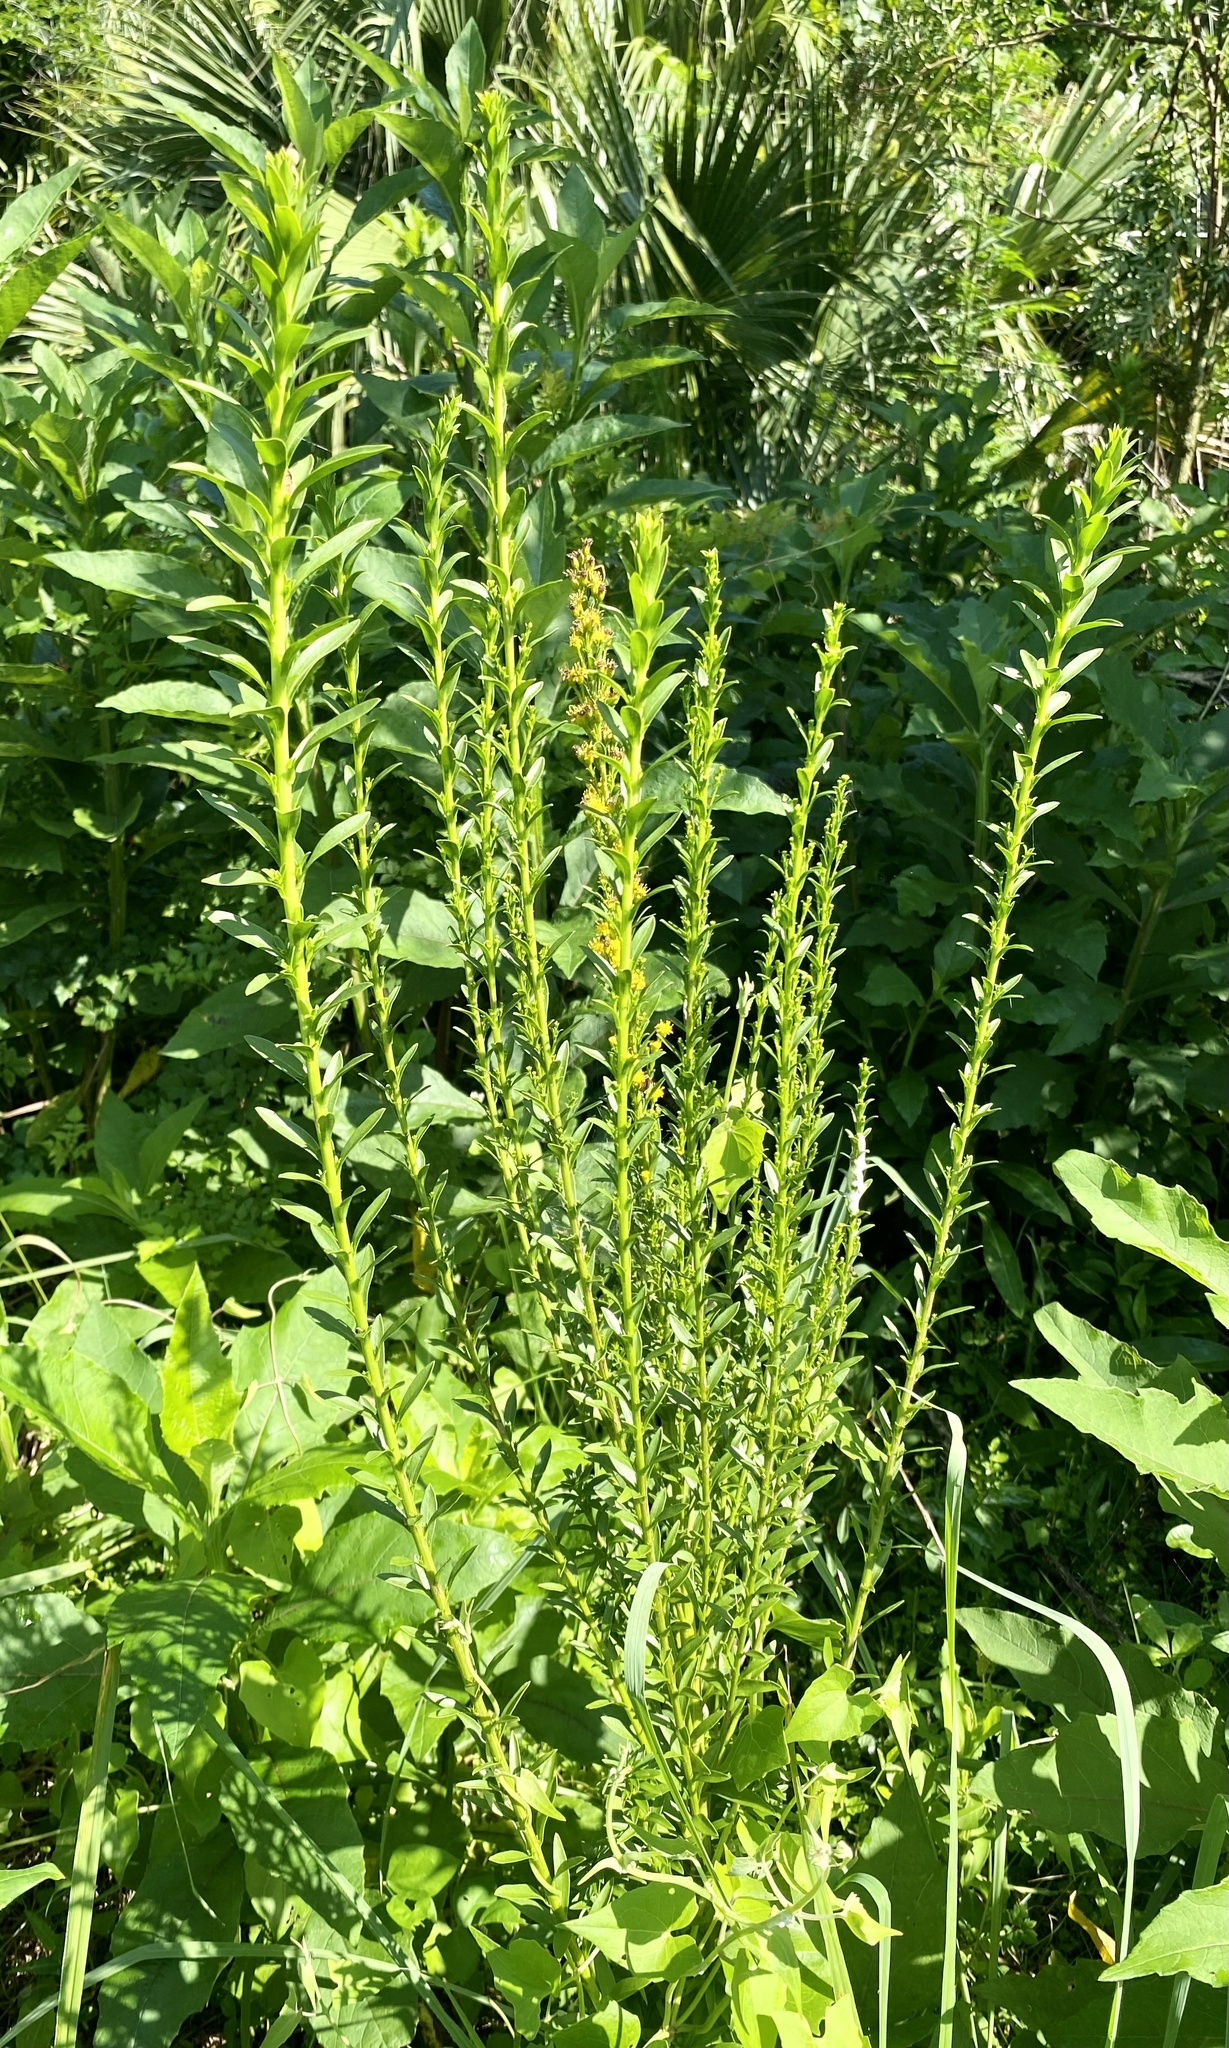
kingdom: Plantae
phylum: Tracheophyta
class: Magnoliopsida
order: Asterales
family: Asteraceae
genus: Solidago
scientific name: Solidago mexicana
